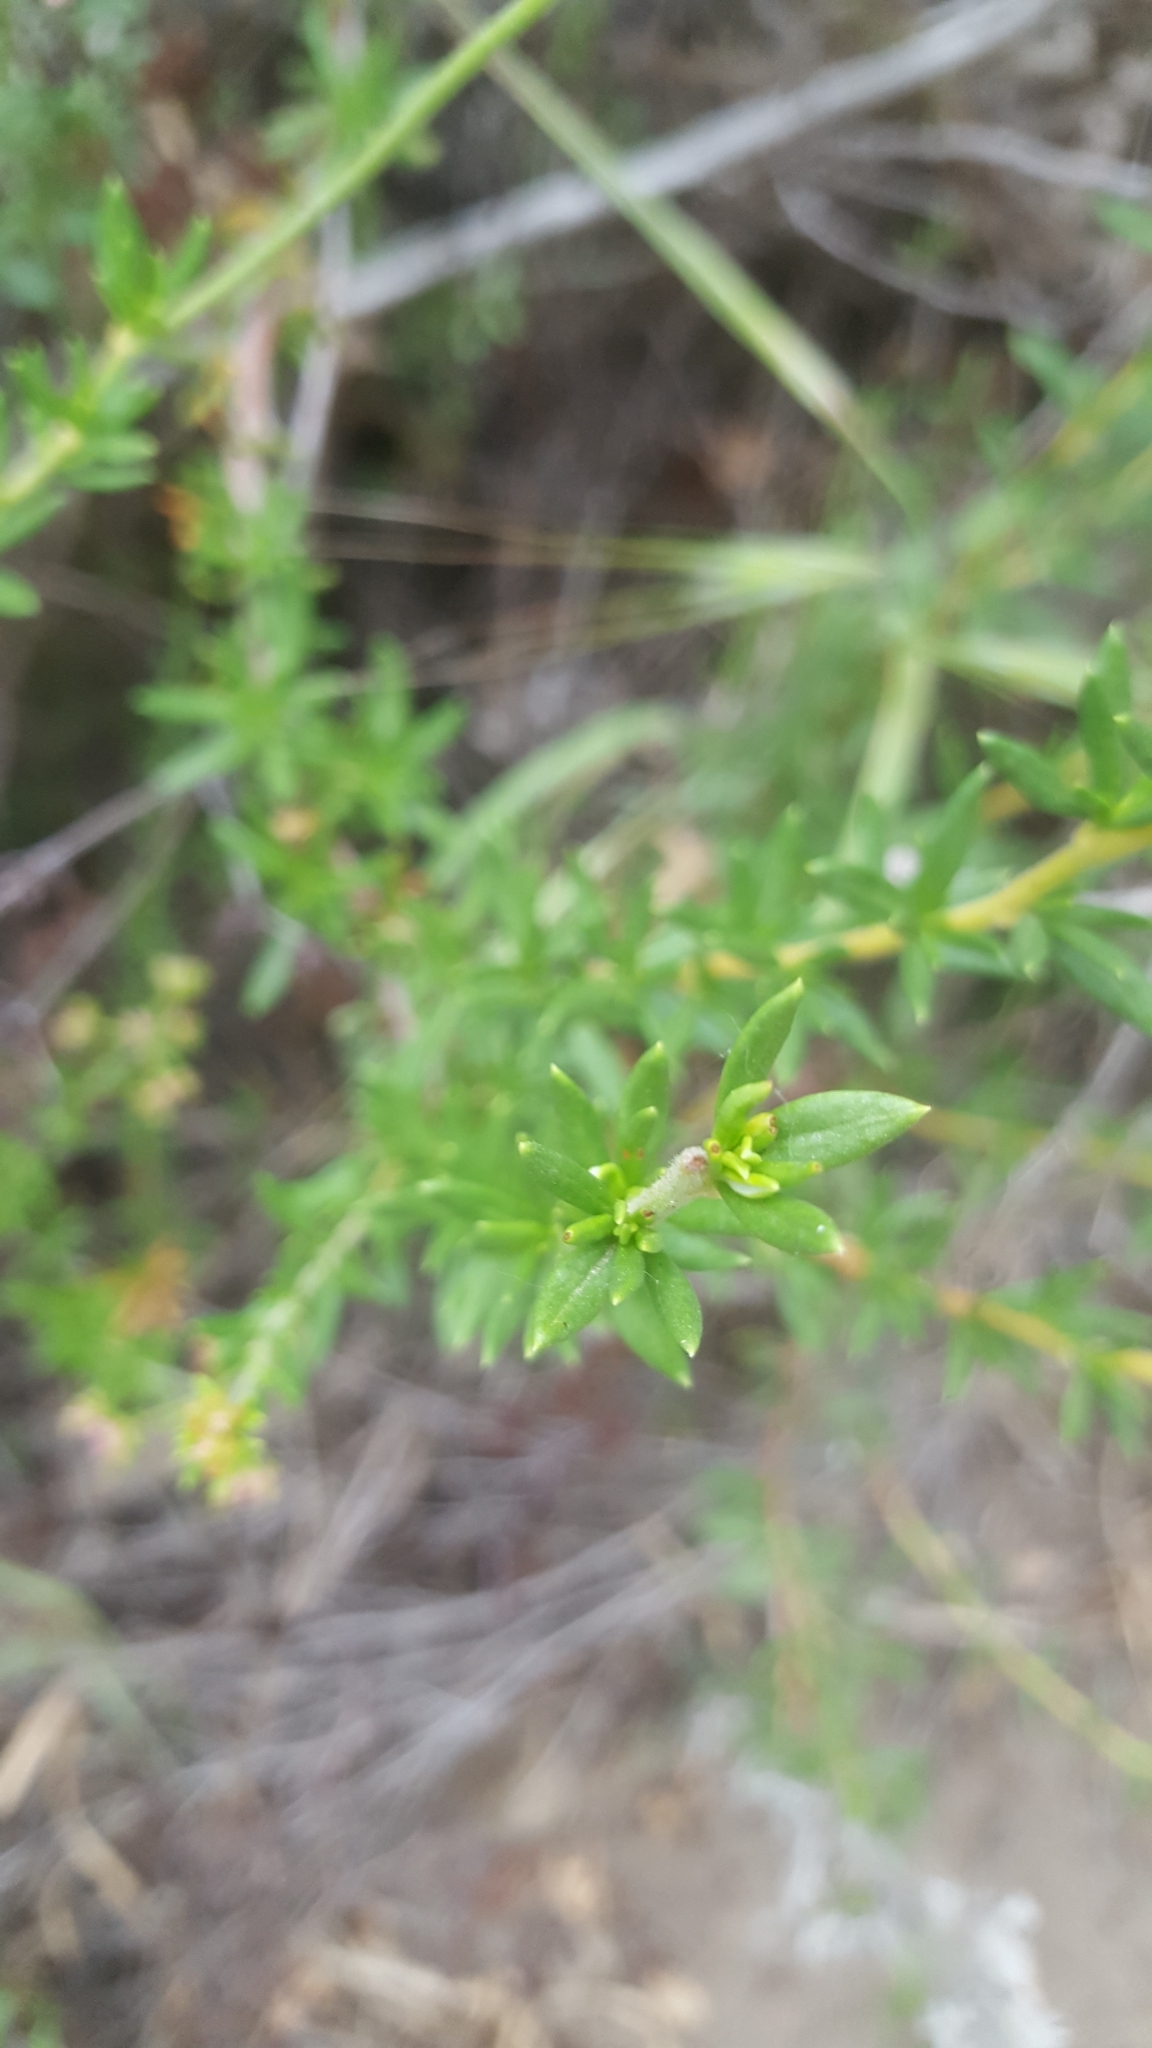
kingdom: Plantae
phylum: Tracheophyta
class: Magnoliopsida
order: Caryophyllales
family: Polygonaceae
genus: Eriogonum
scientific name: Eriogonum fasciculatum
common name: California wild buckwheat
